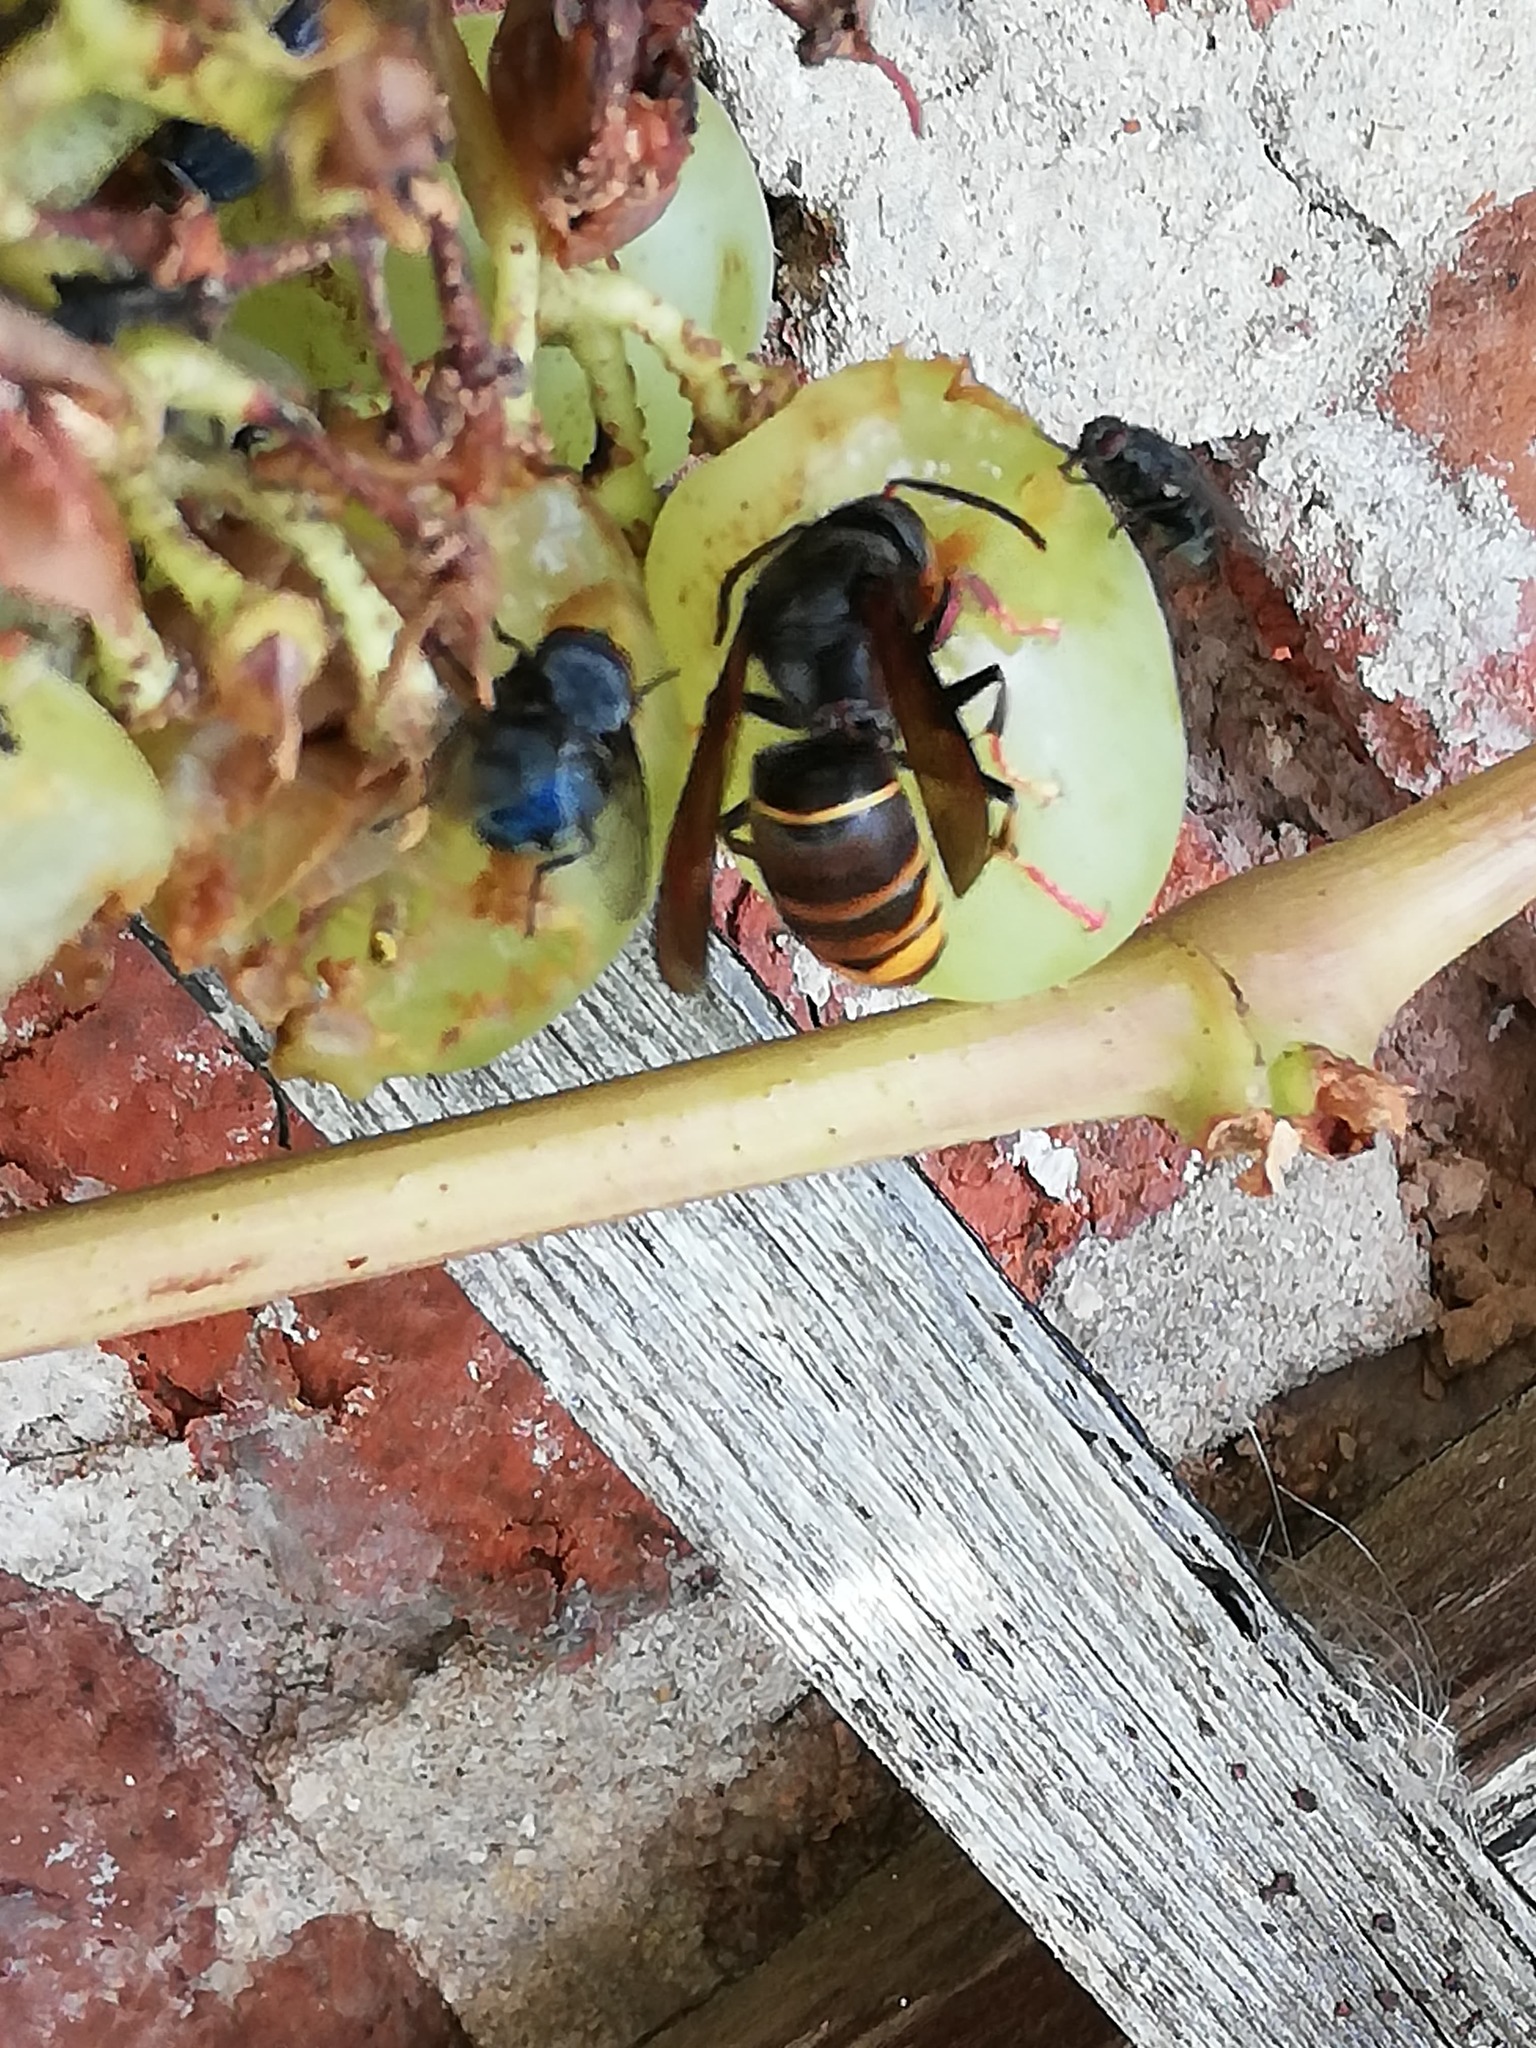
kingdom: Animalia
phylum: Arthropoda
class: Insecta
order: Hymenoptera
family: Vespidae
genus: Vespa
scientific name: Vespa velutina
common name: Asian hornet
